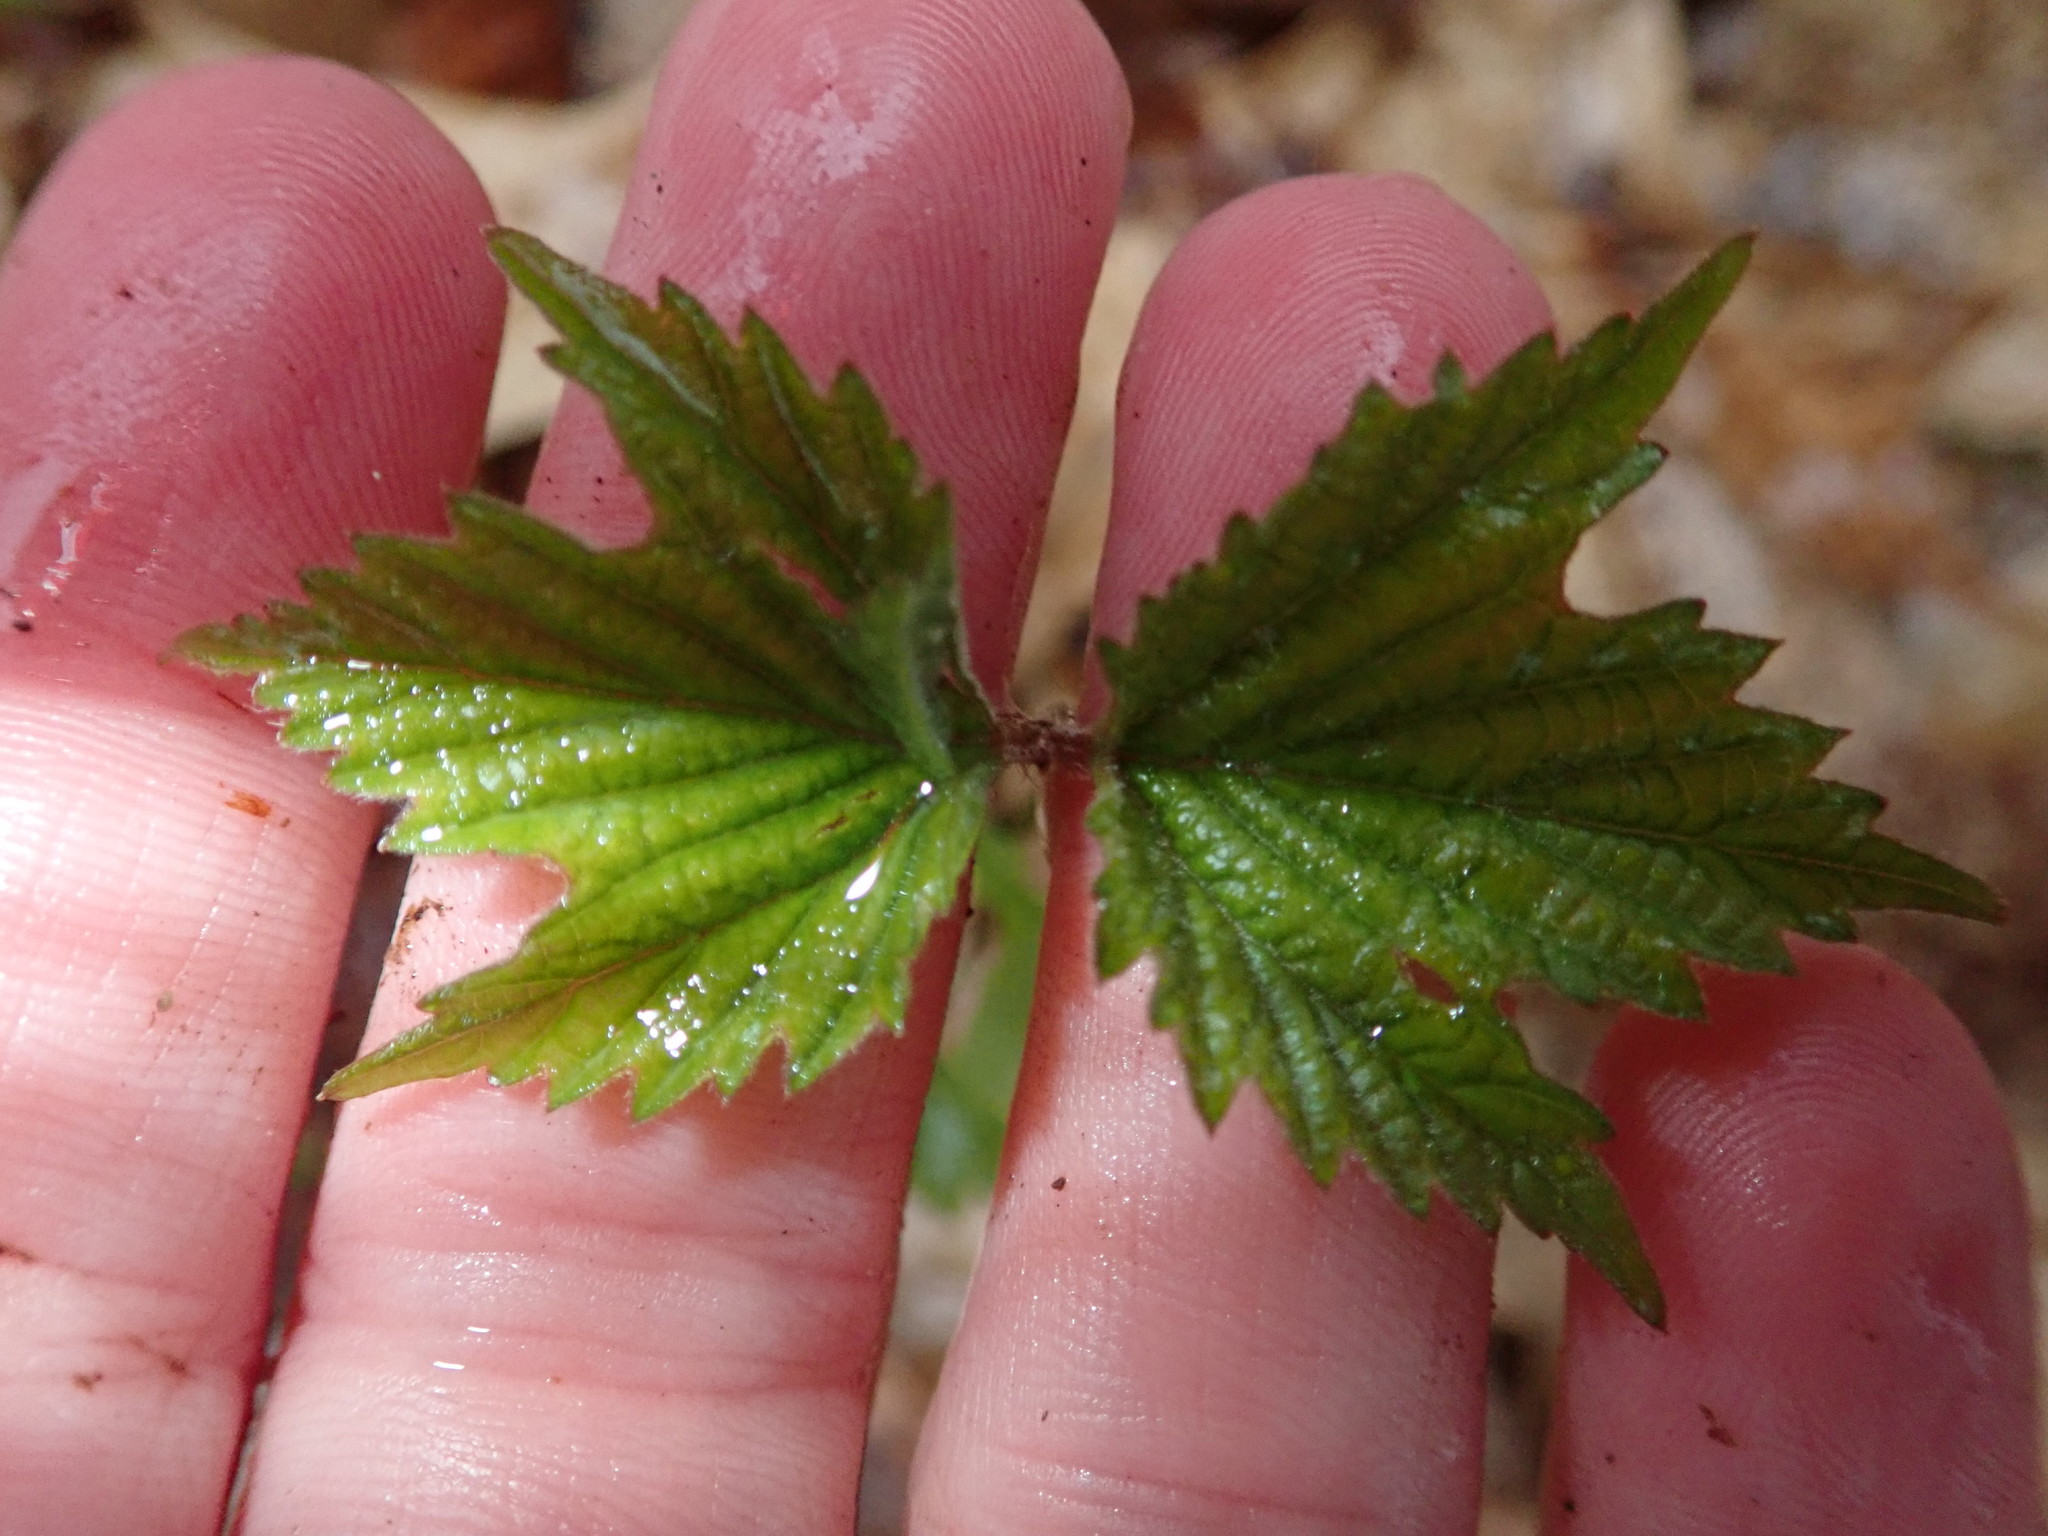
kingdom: Plantae
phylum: Tracheophyta
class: Magnoliopsida
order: Dipsacales
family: Viburnaceae
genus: Viburnum
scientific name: Viburnum acerifolium
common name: Dockmackie
